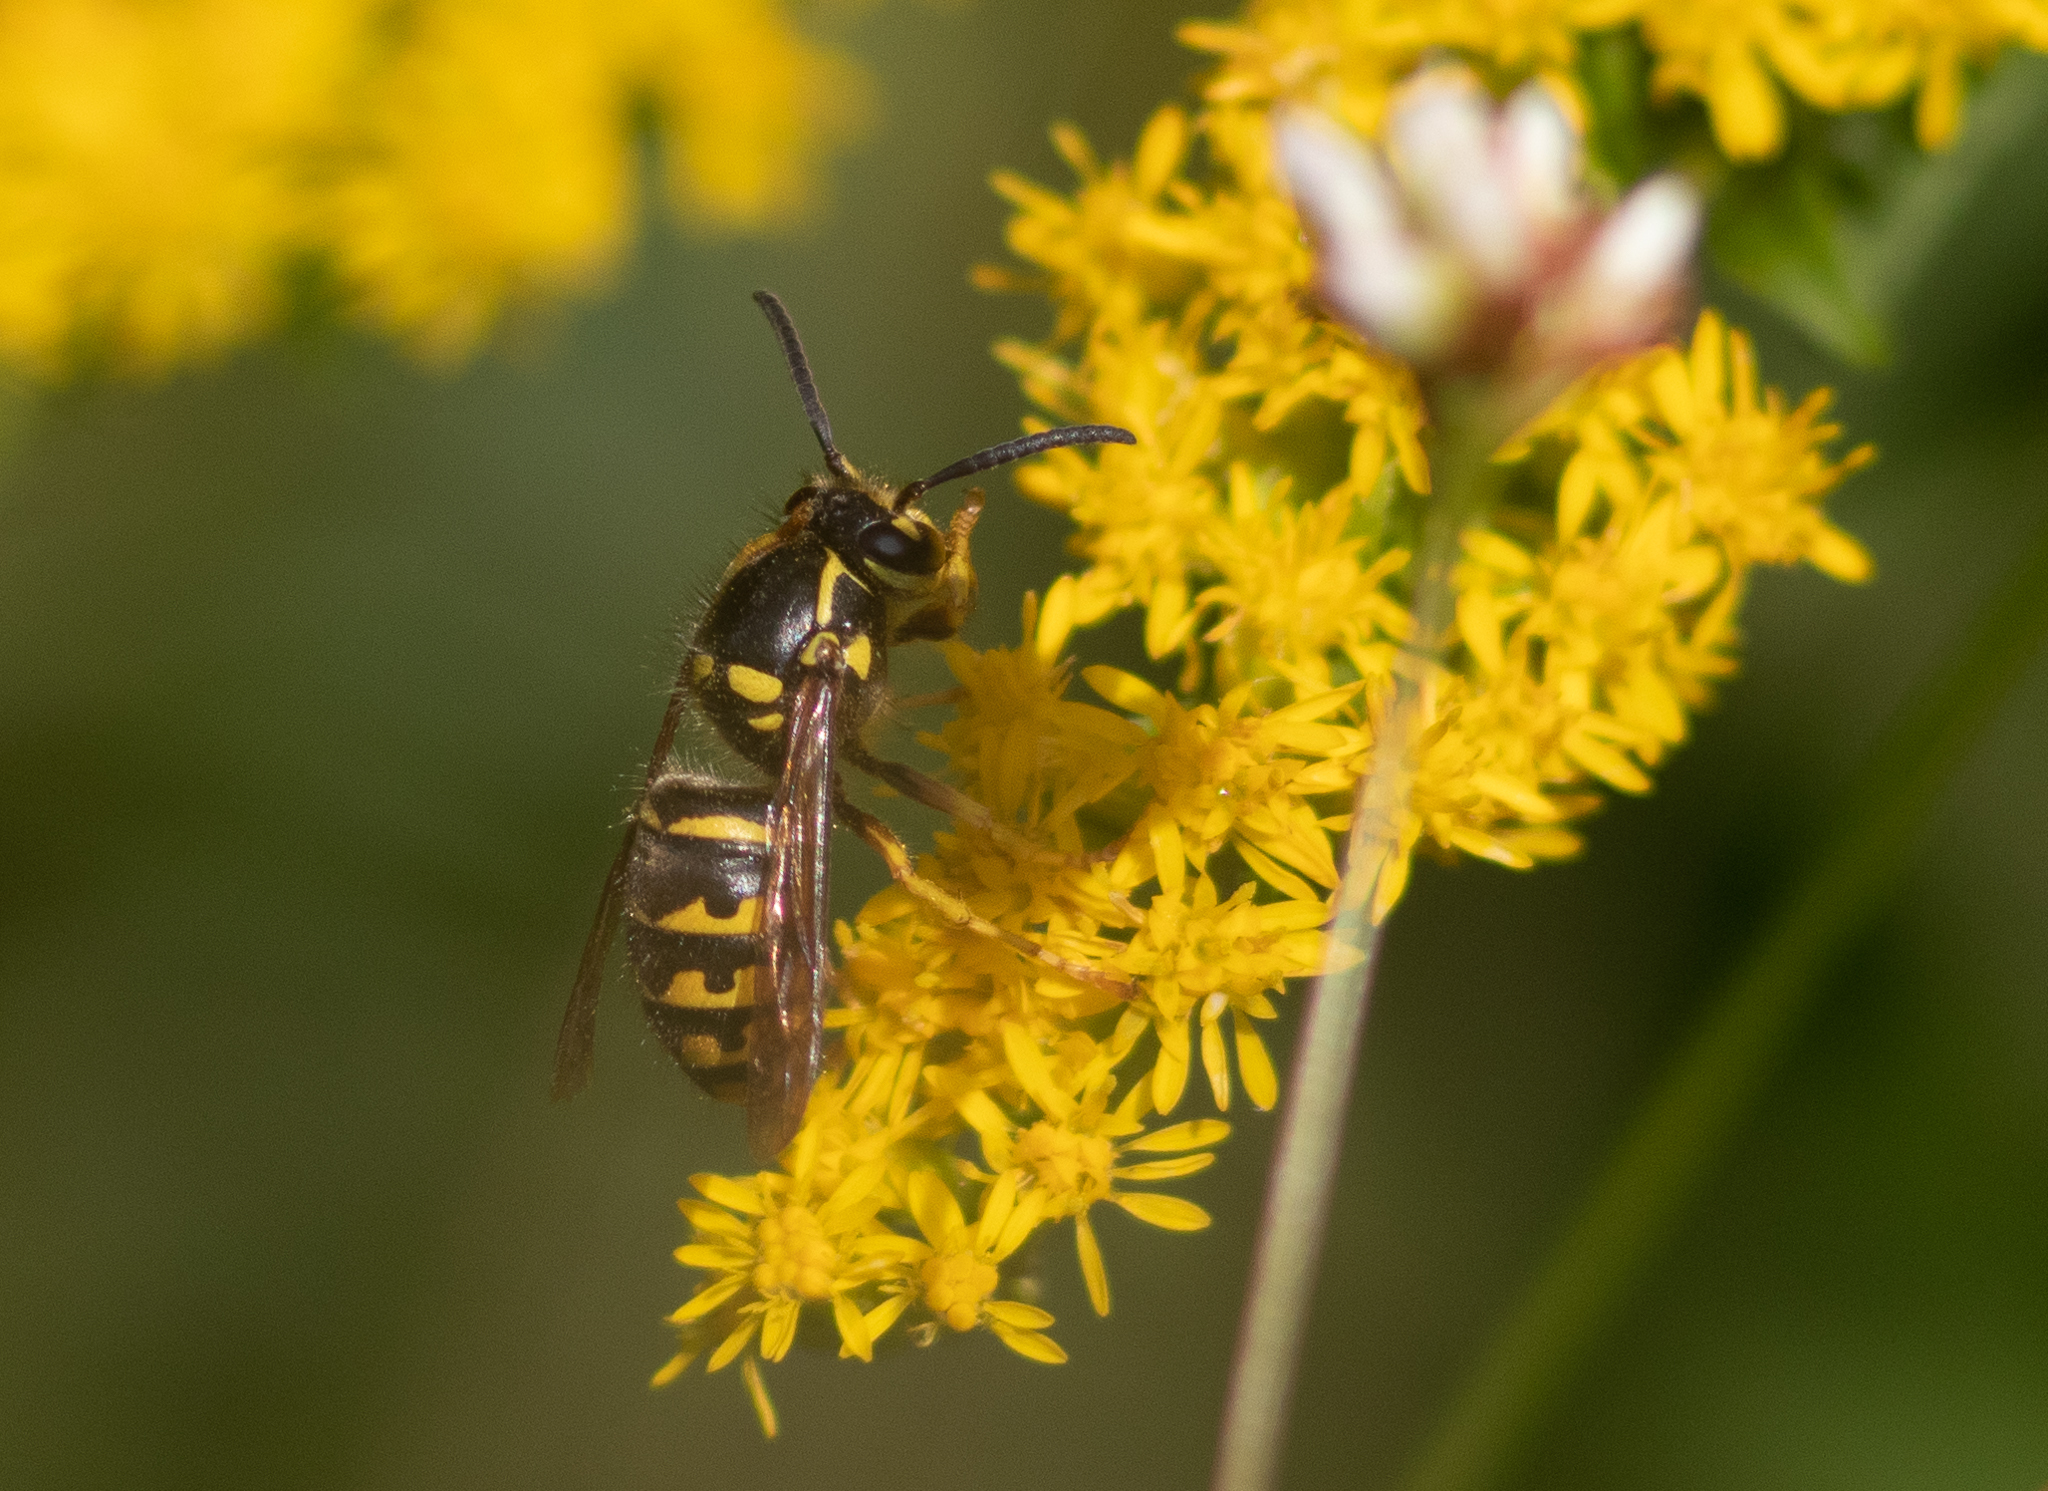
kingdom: Animalia
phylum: Arthropoda
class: Insecta
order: Hymenoptera
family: Vespidae
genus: Dolichovespula
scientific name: Dolichovespula arenaria
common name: Aerial yellowjacket
